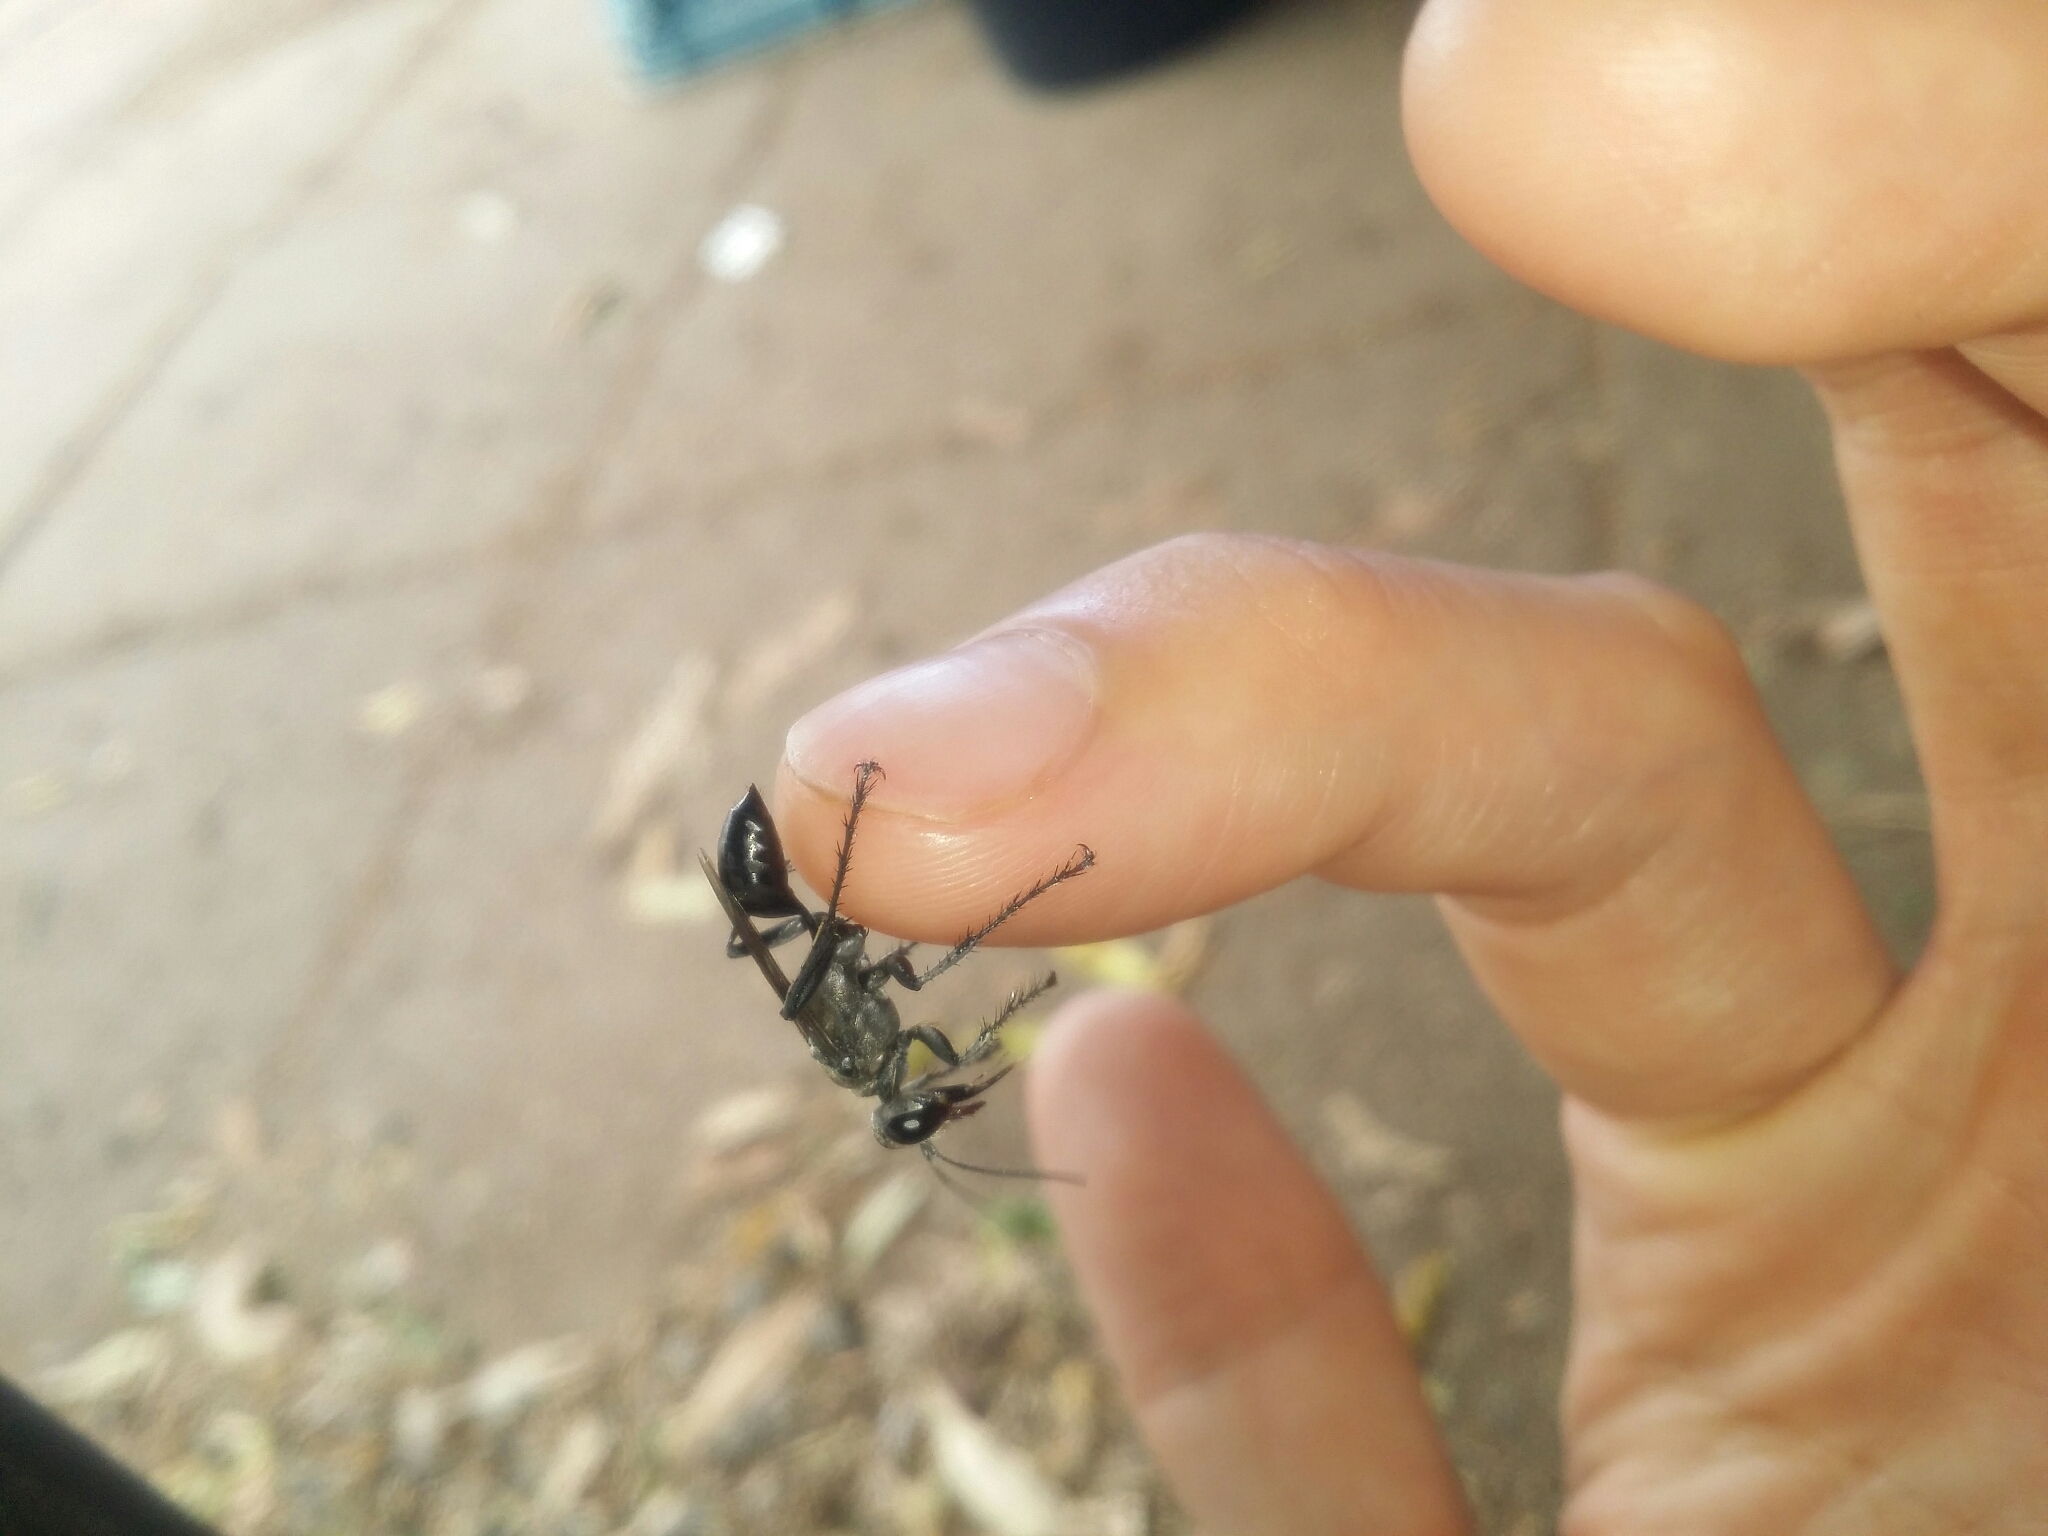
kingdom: Animalia
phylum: Arthropoda
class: Insecta
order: Hymenoptera
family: Sphecidae
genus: Prionyx
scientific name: Prionyx globosus
